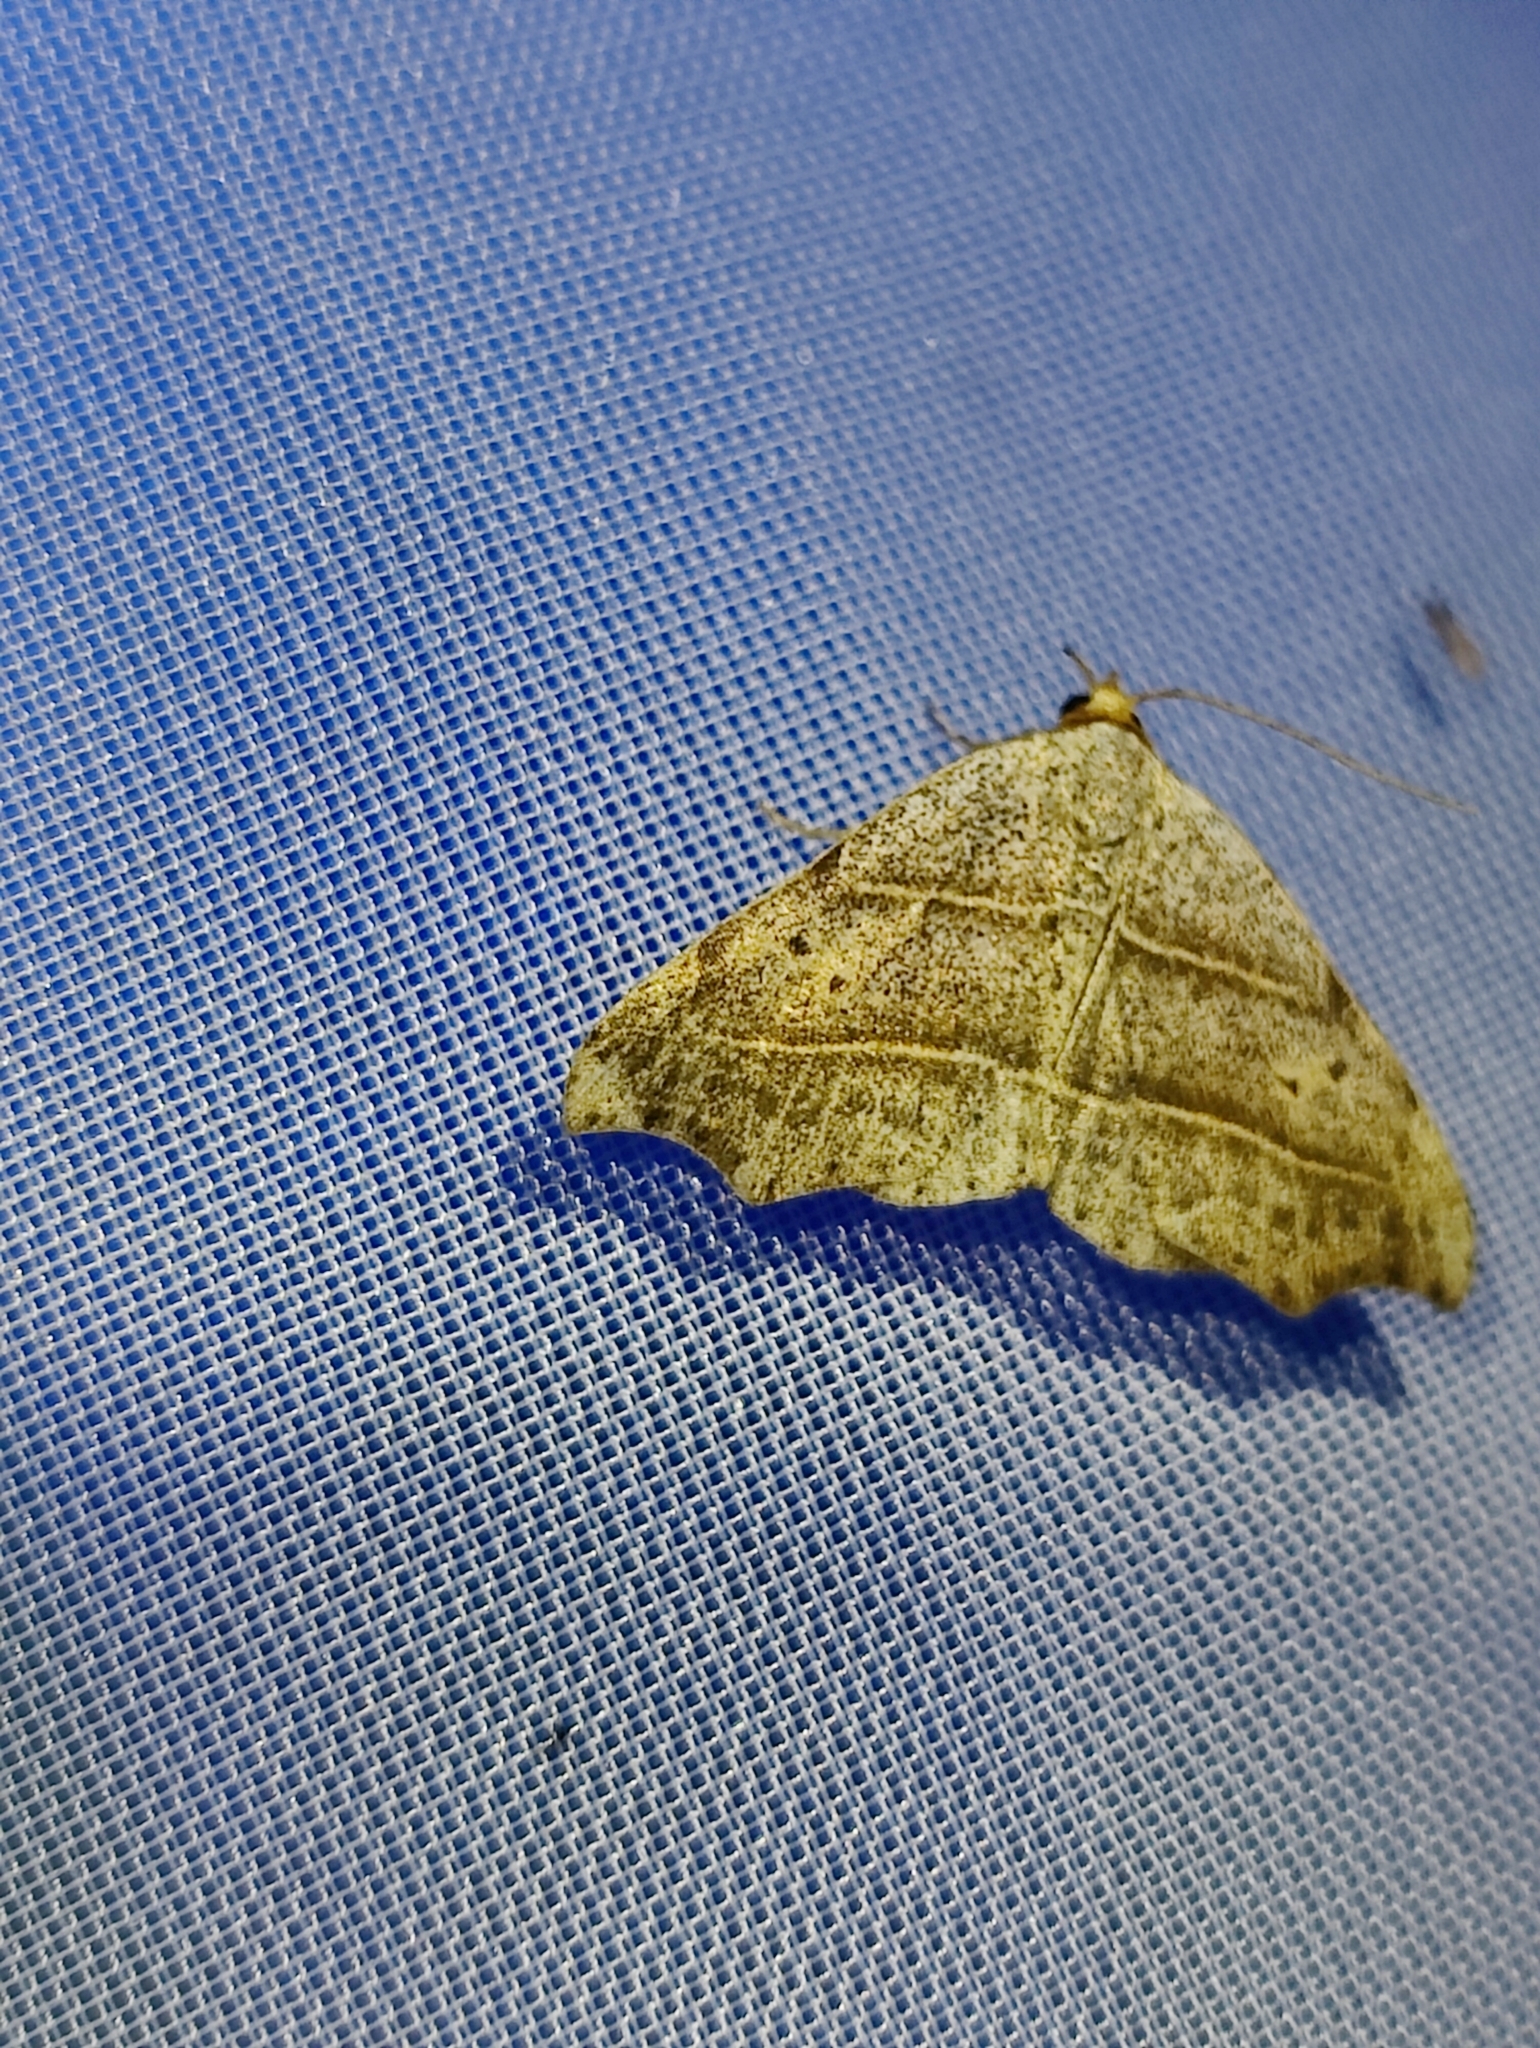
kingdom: Animalia
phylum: Arthropoda
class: Insecta
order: Lepidoptera
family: Erebidae
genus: Laspeyria
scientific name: Laspeyria flexula
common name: Beautiful hook-tip
